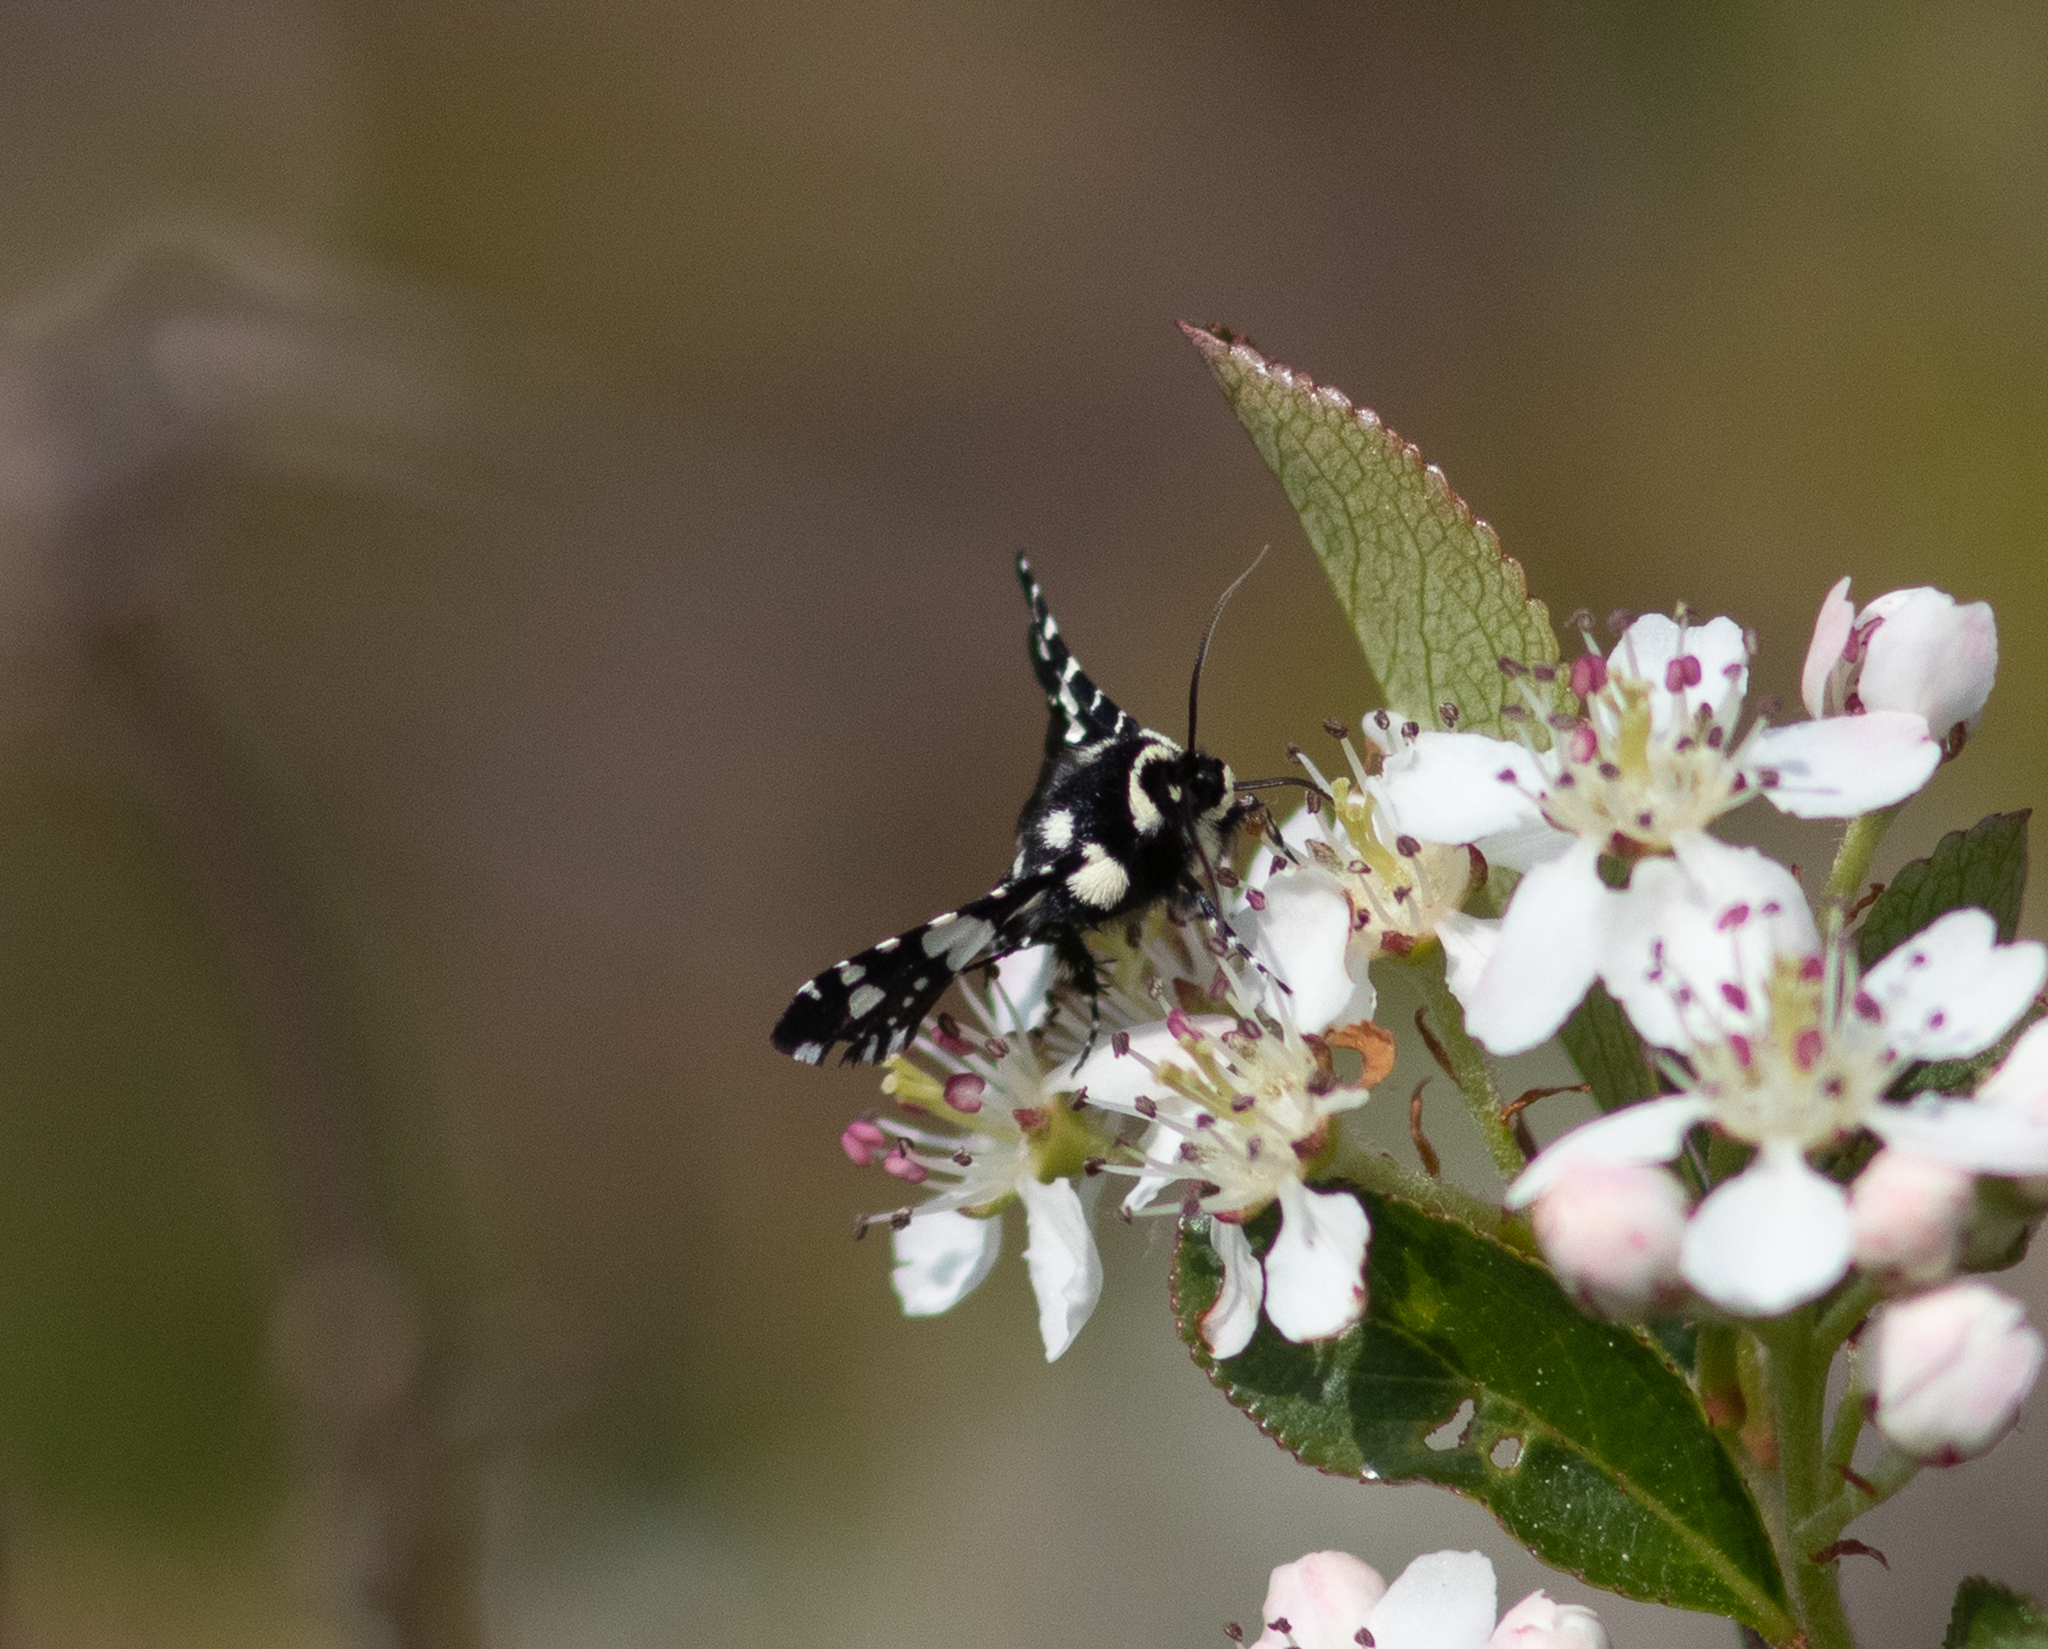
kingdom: Animalia
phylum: Arthropoda
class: Insecta
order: Lepidoptera
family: Thyrididae
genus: Pseudothyris
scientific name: Pseudothyris sepulchralis
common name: Mournful thyris moth
